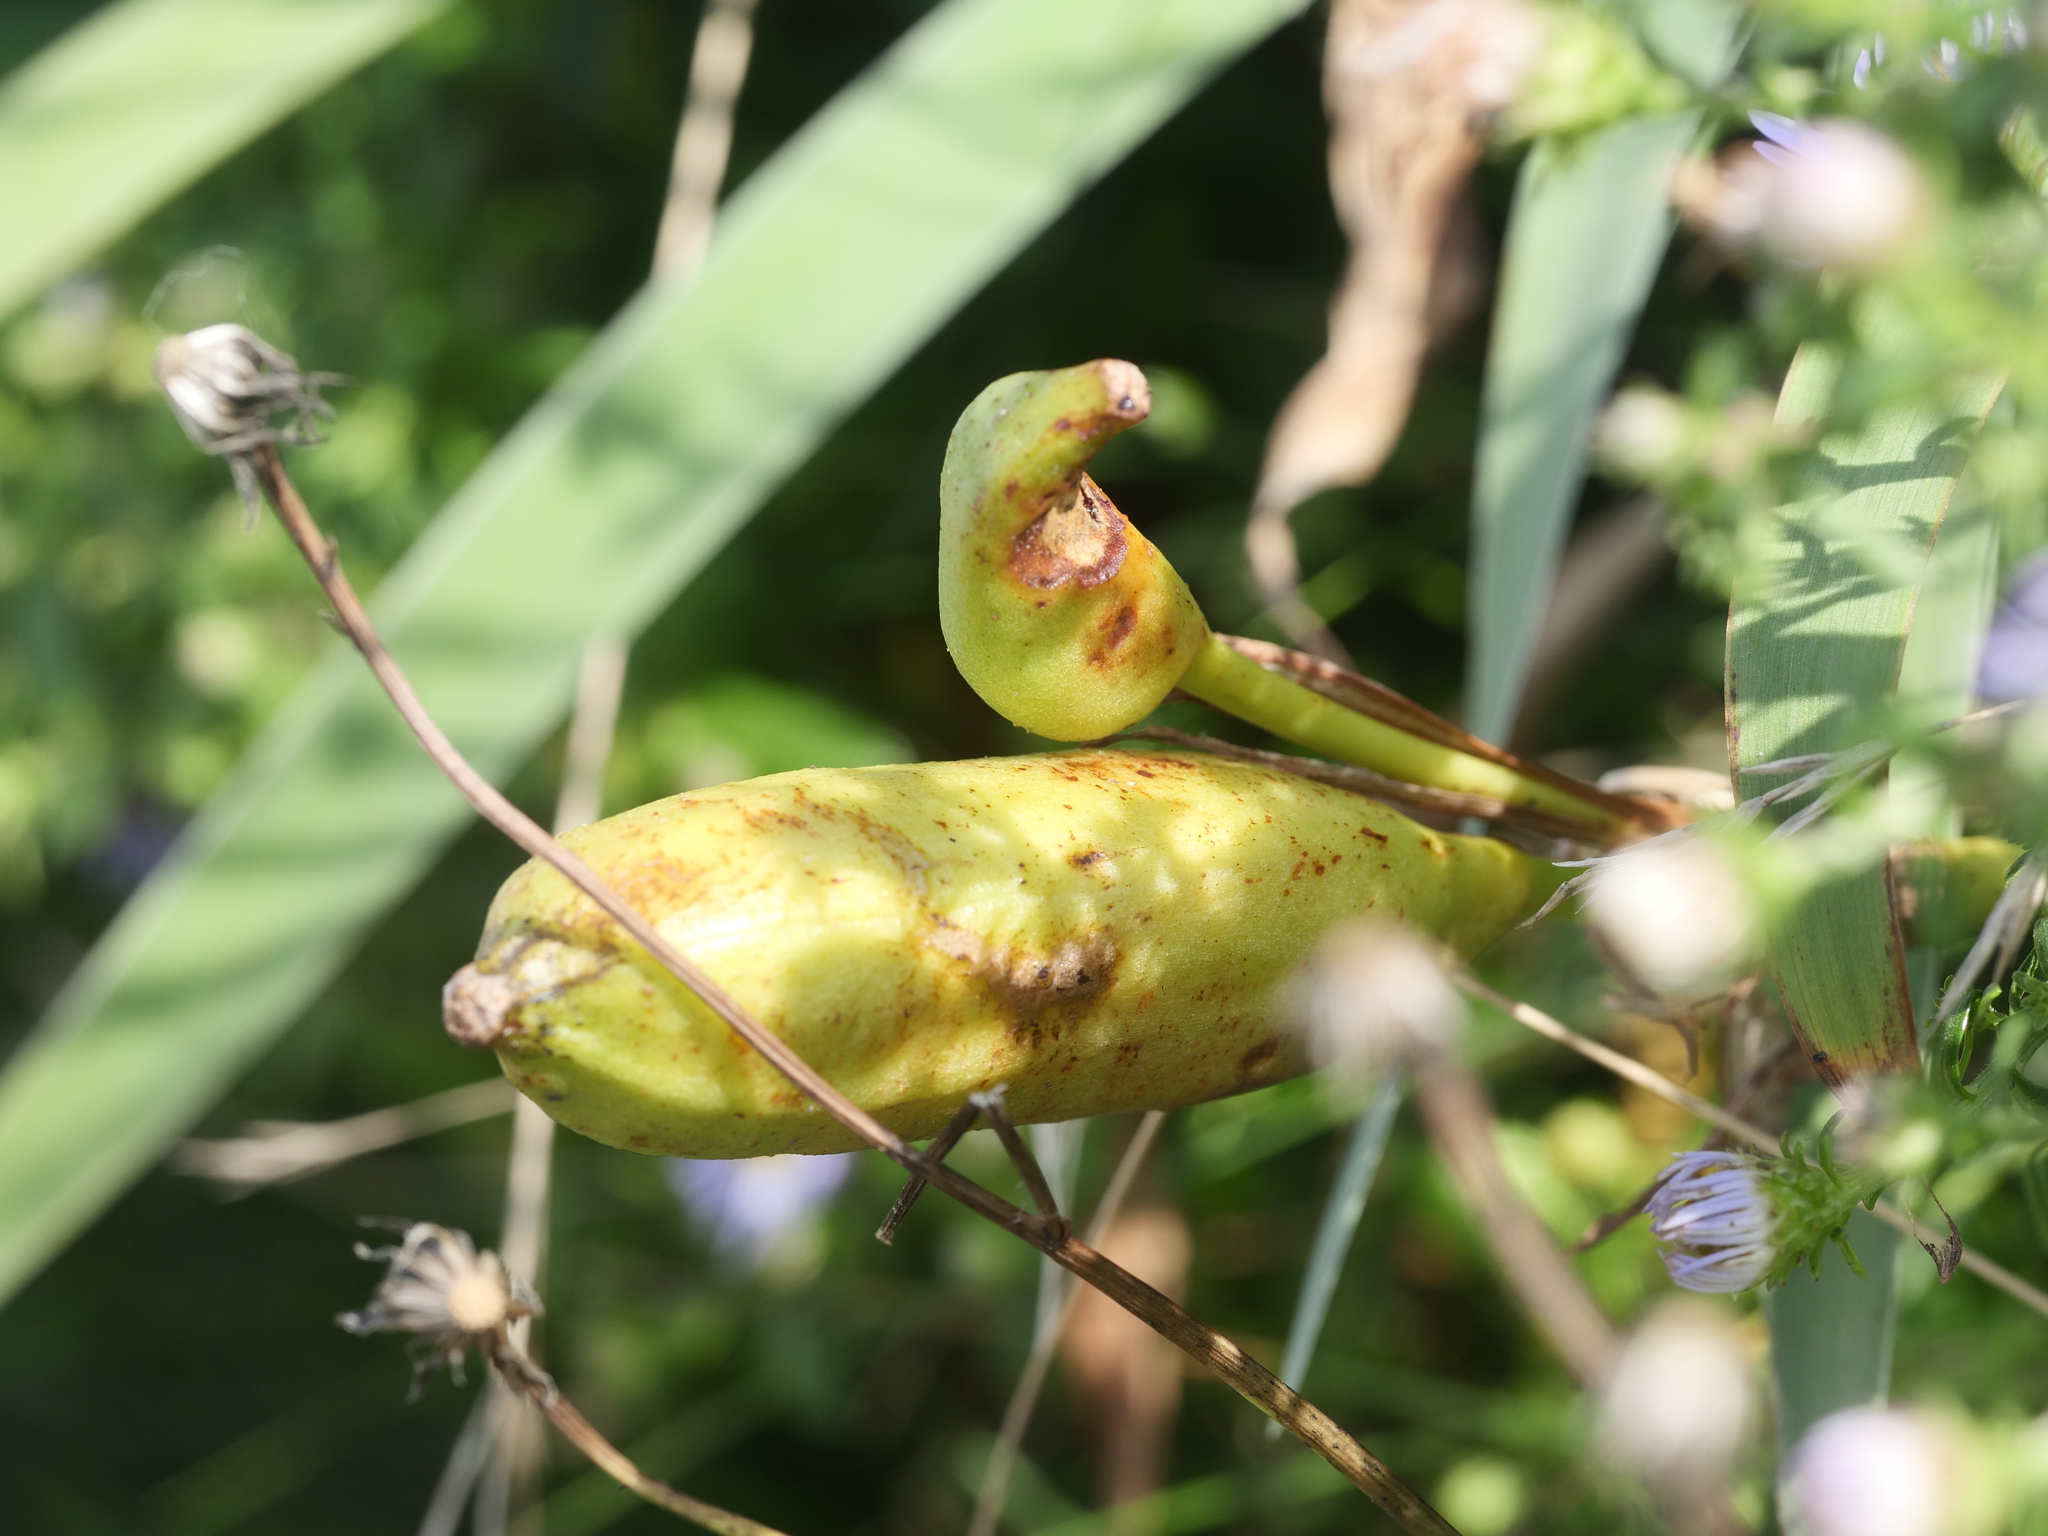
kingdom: Plantae
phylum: Tracheophyta
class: Liliopsida
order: Asparagales
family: Iridaceae
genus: Iris
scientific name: Iris versicolor
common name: Purple iris
